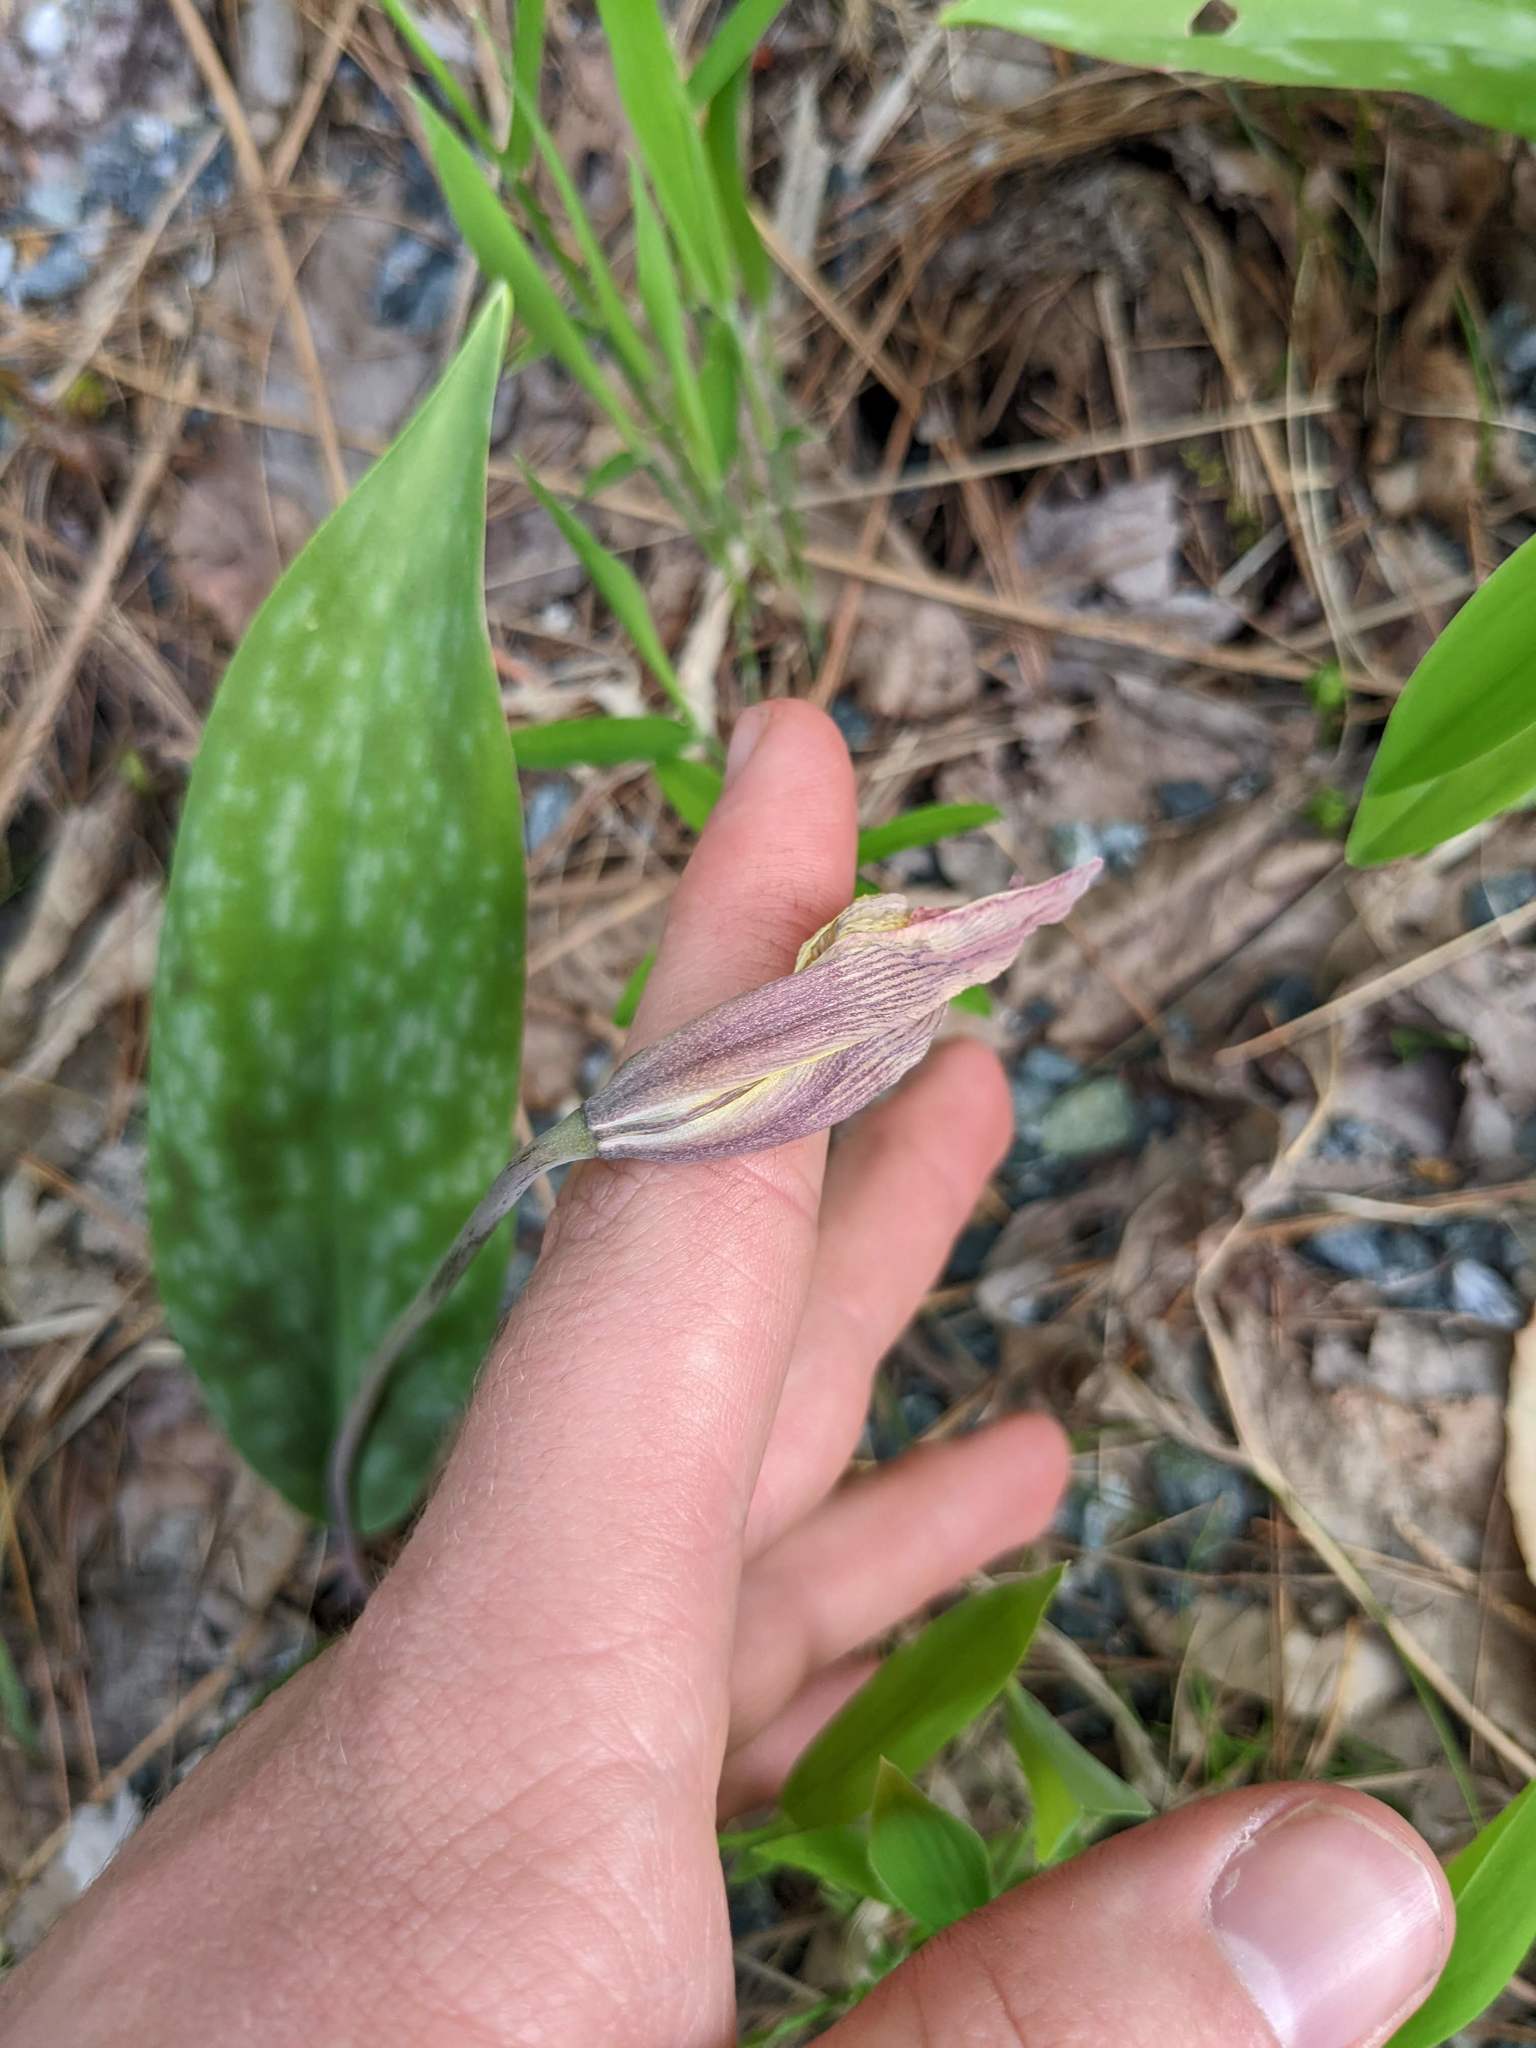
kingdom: Plantae
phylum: Tracheophyta
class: Liliopsida
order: Liliales
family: Liliaceae
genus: Erythronium
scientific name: Erythronium americanum
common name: Yellow adder's-tongue
